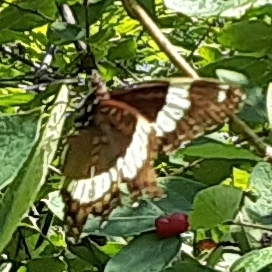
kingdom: Animalia
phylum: Arthropoda
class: Insecta
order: Lepidoptera
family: Nymphalidae
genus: Limenitis
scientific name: Limenitis arthemis
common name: Red-spotted admiral
